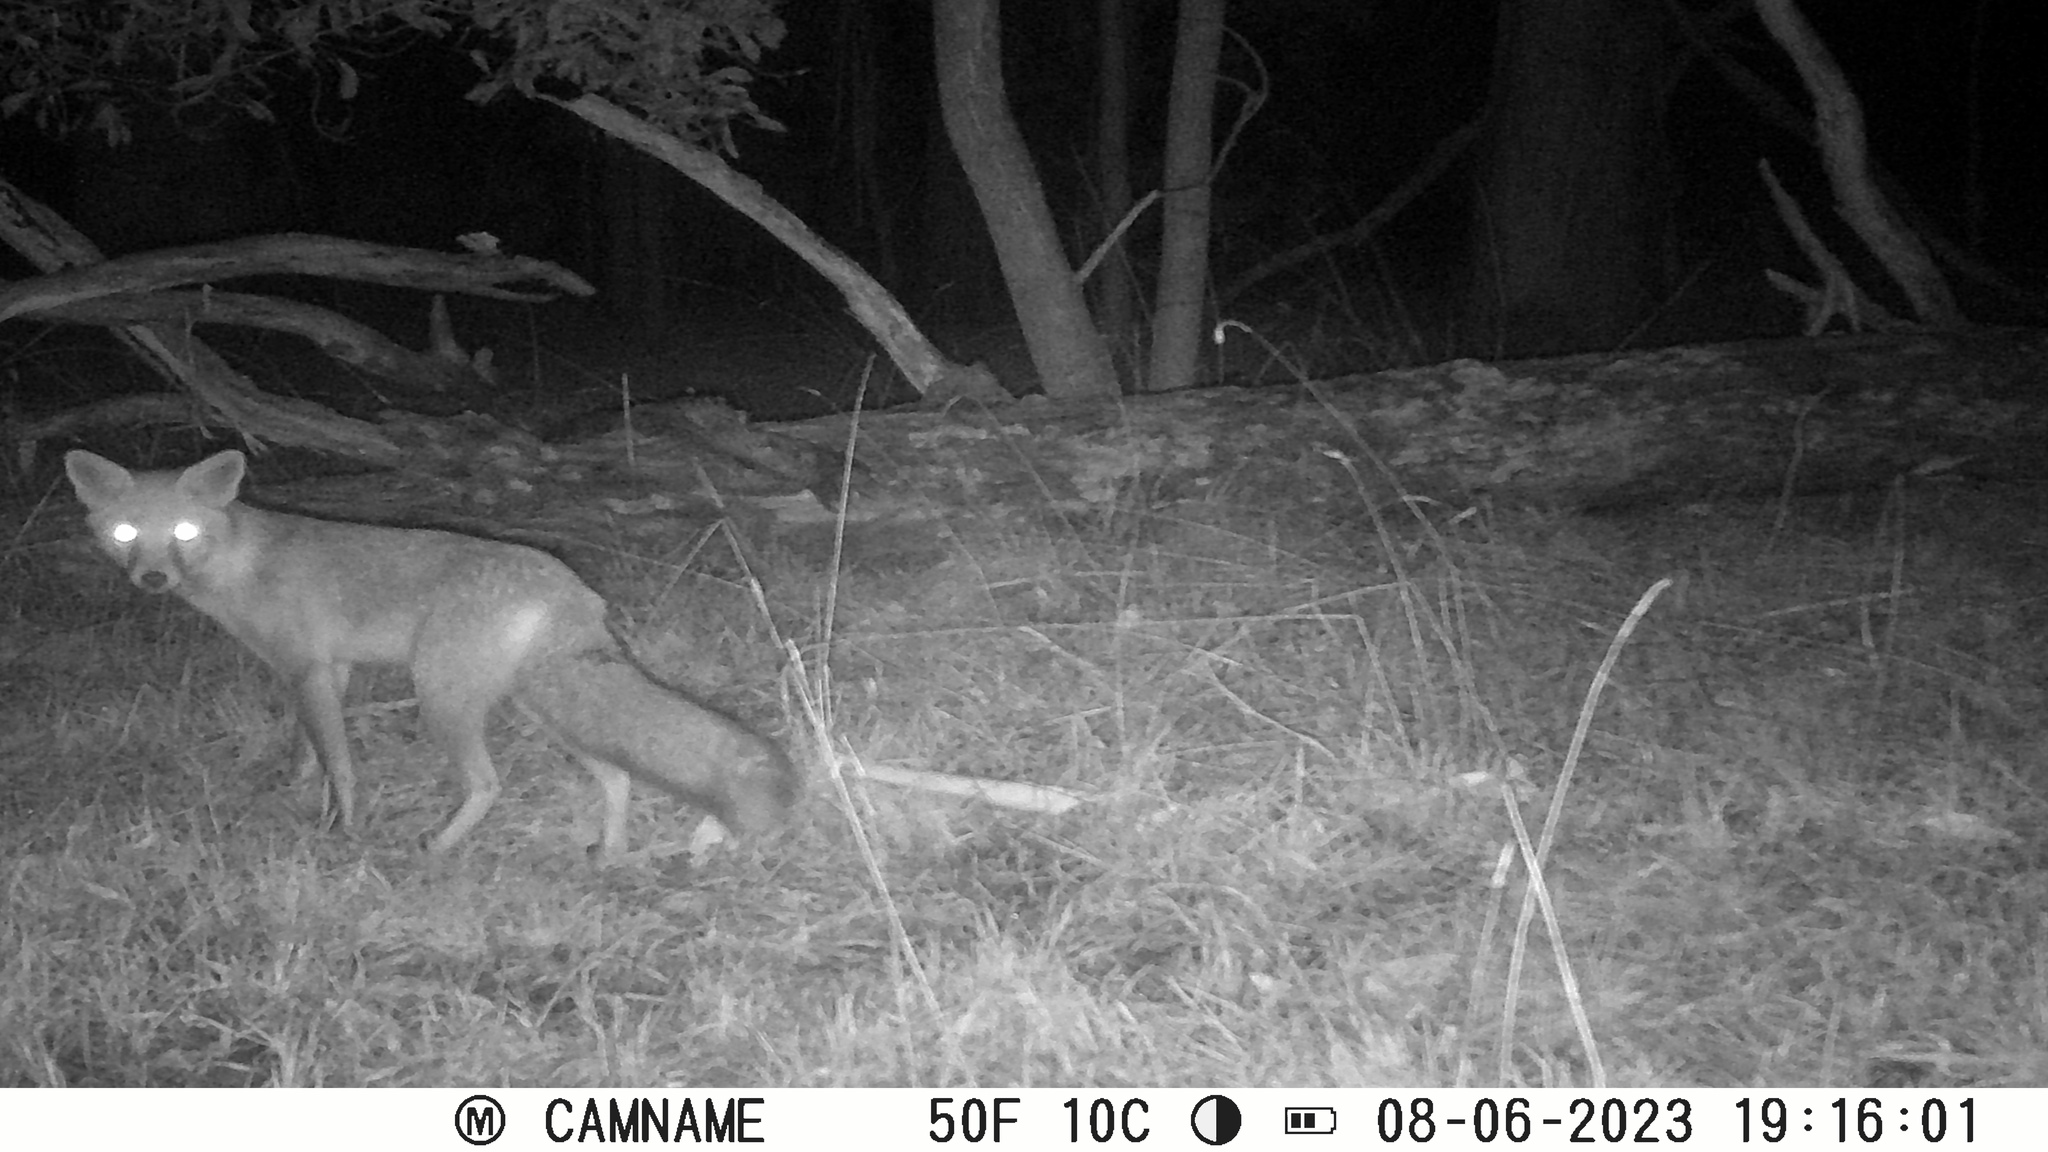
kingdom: Animalia
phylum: Chordata
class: Mammalia
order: Carnivora
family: Canidae
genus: Vulpes
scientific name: Vulpes vulpes
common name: Red fox
